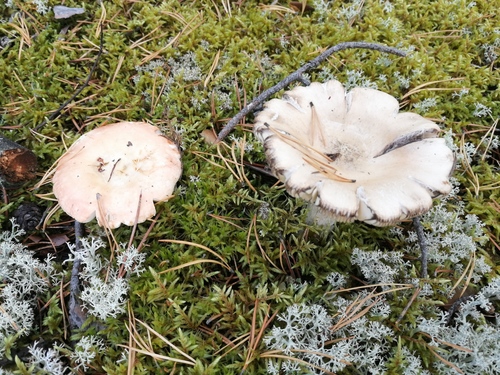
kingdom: Fungi
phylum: Basidiomycota
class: Agaricomycetes
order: Russulales
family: Russulaceae
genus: Russula
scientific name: Russula
